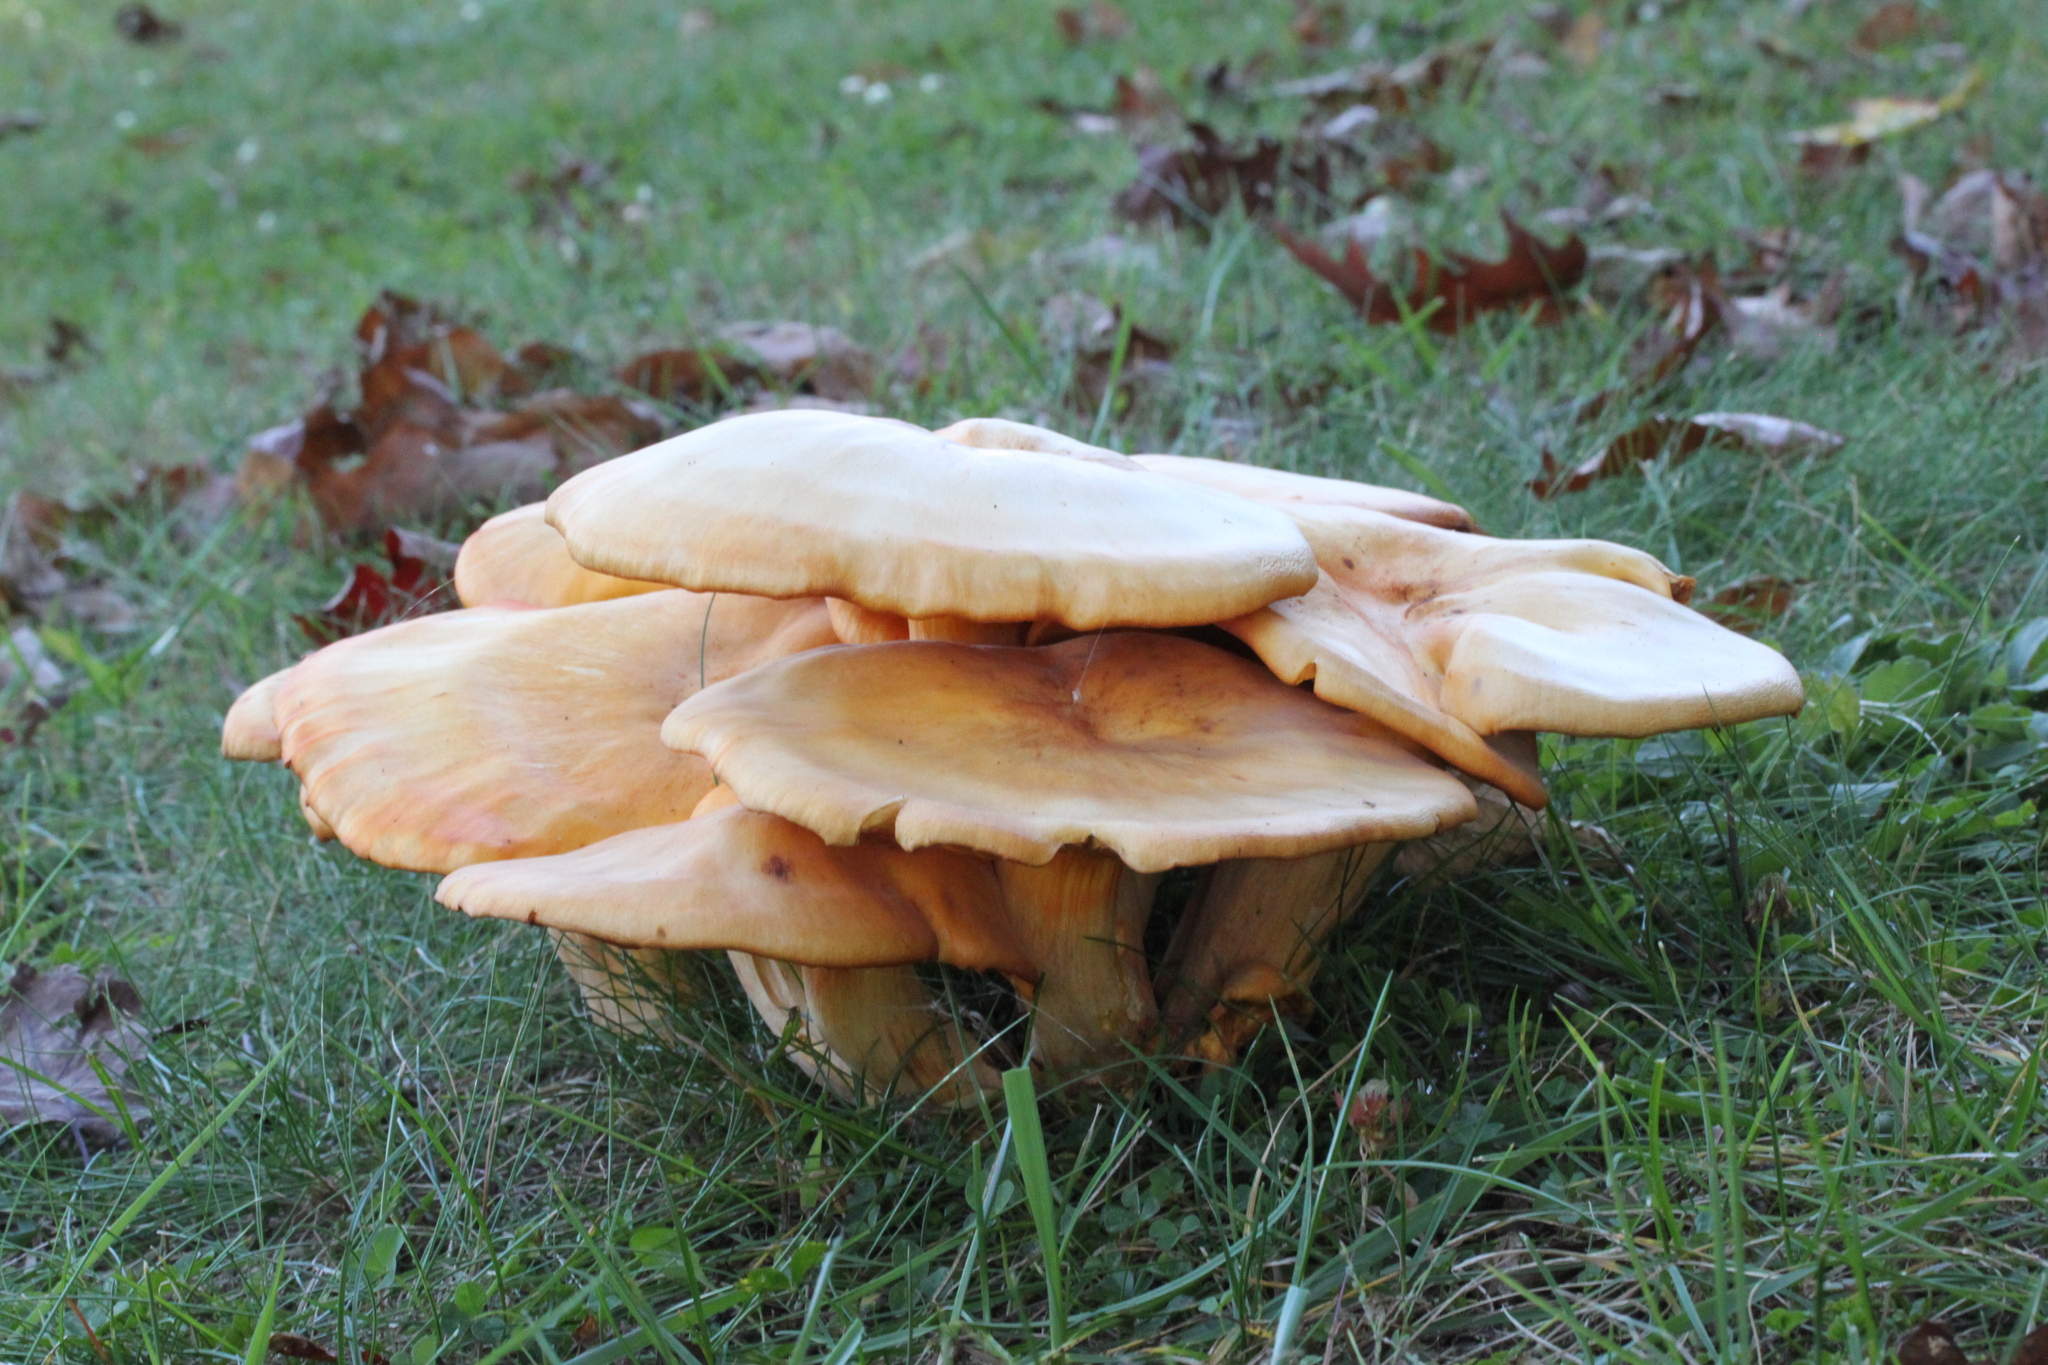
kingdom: Fungi
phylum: Basidiomycota
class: Agaricomycetes
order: Agaricales
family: Omphalotaceae
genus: Omphalotus
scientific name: Omphalotus illudens
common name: Jack o lantern
